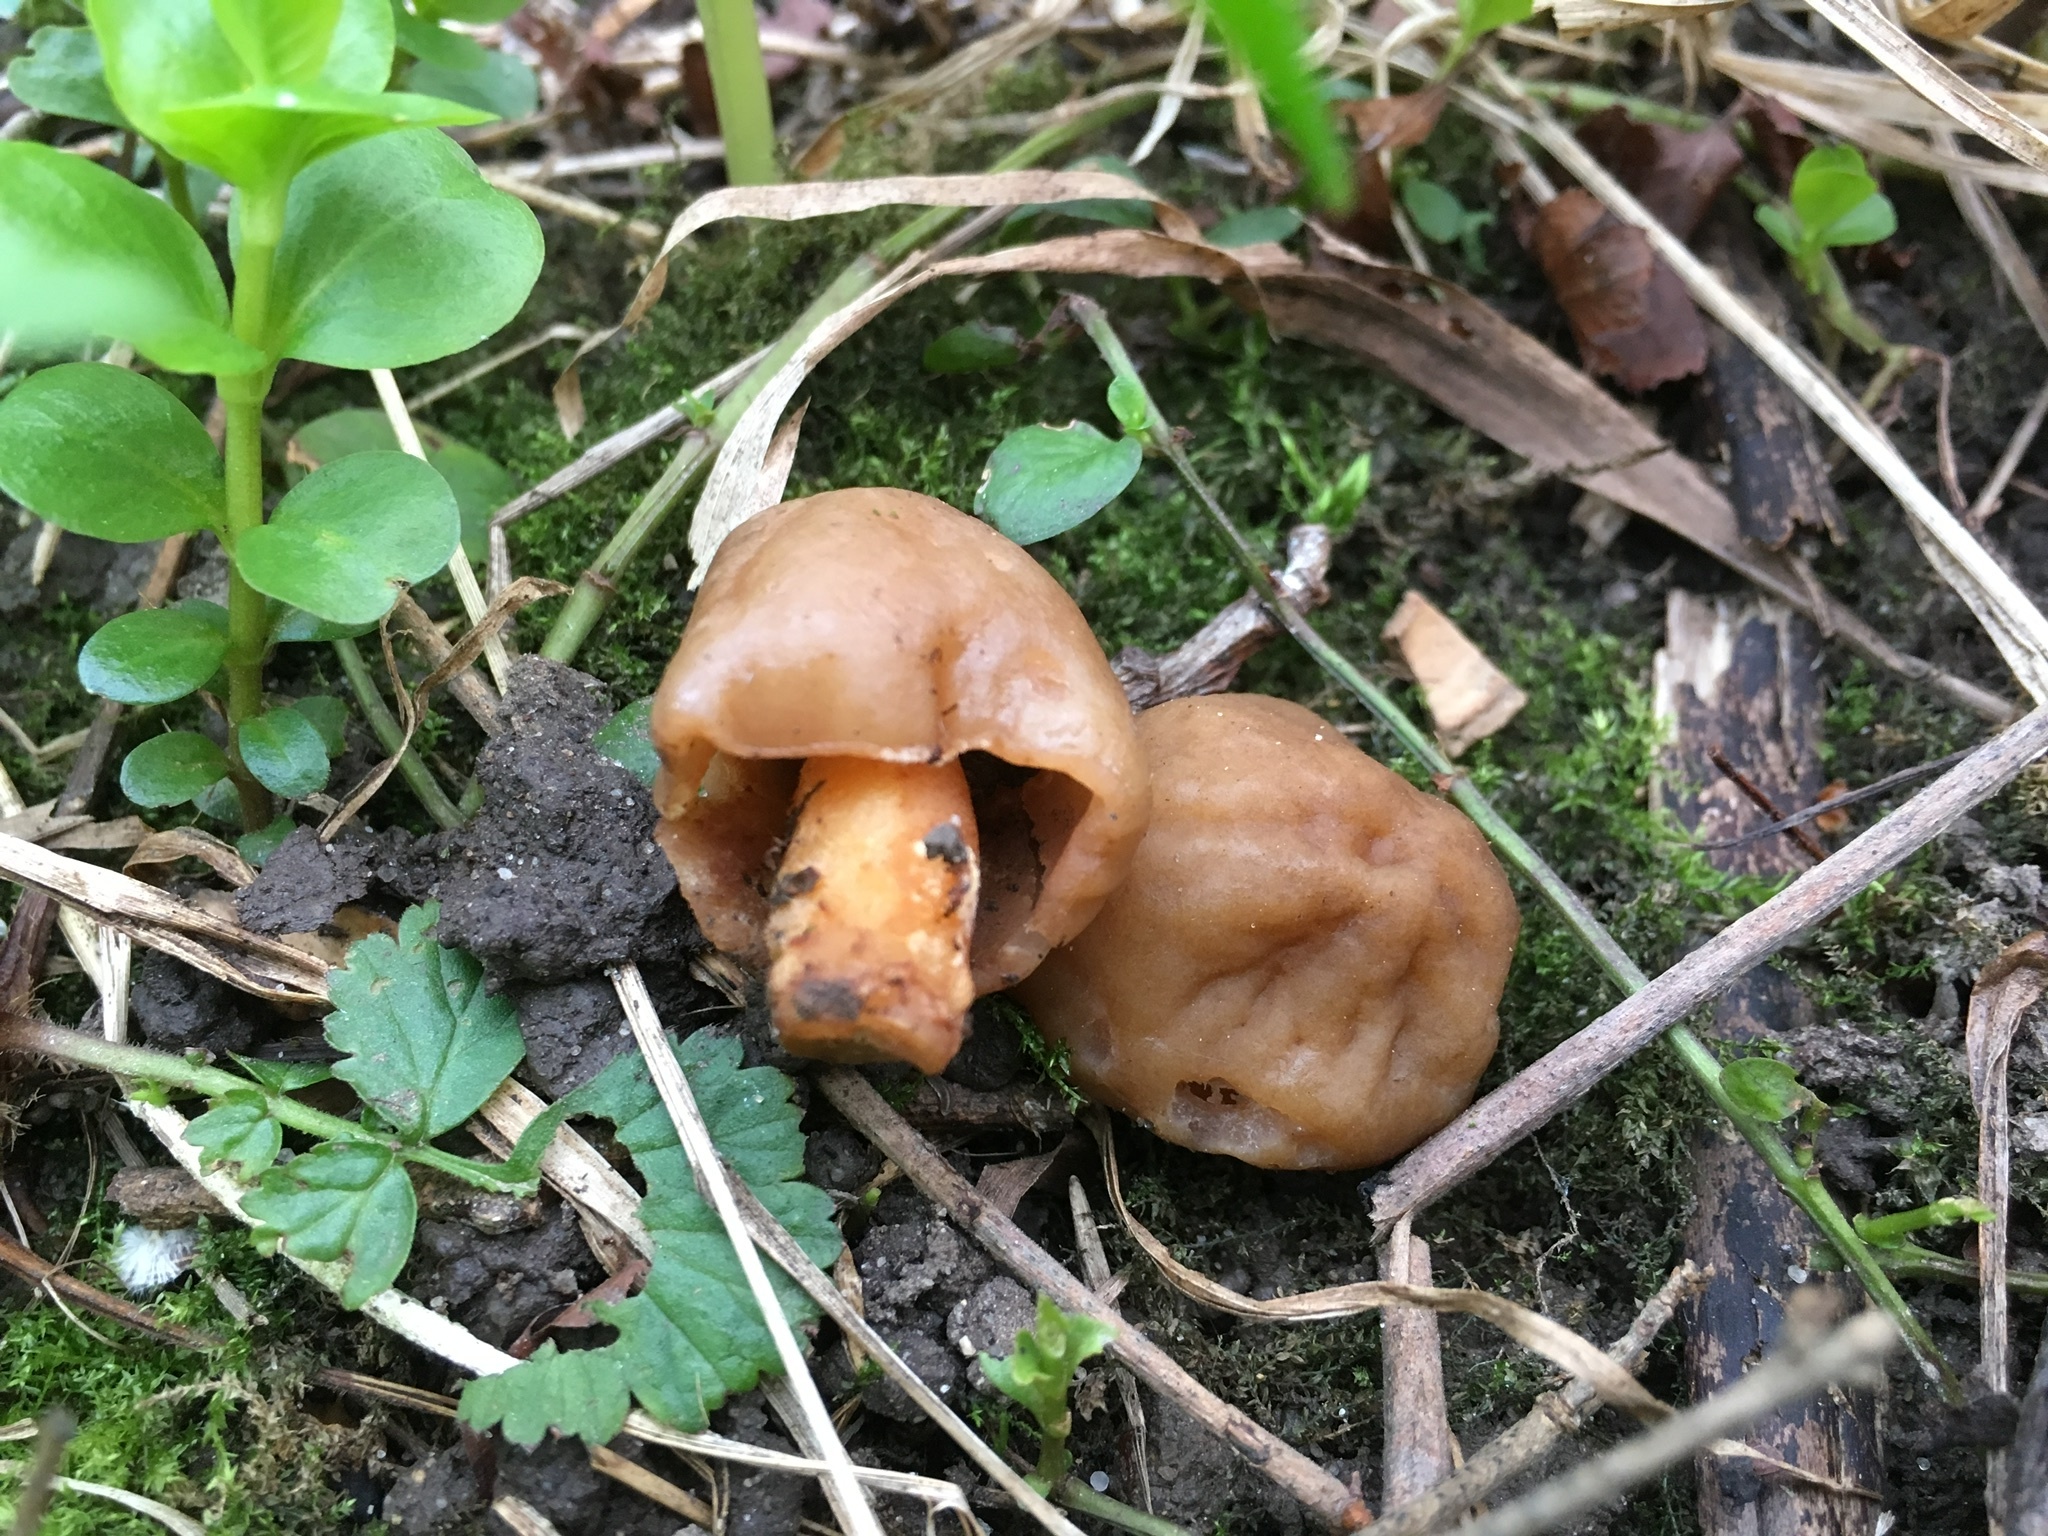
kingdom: Fungi
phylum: Ascomycota
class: Pezizomycetes
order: Pezizales
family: Morchellaceae
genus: Verpa
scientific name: Verpa conica
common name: Thimble morel
